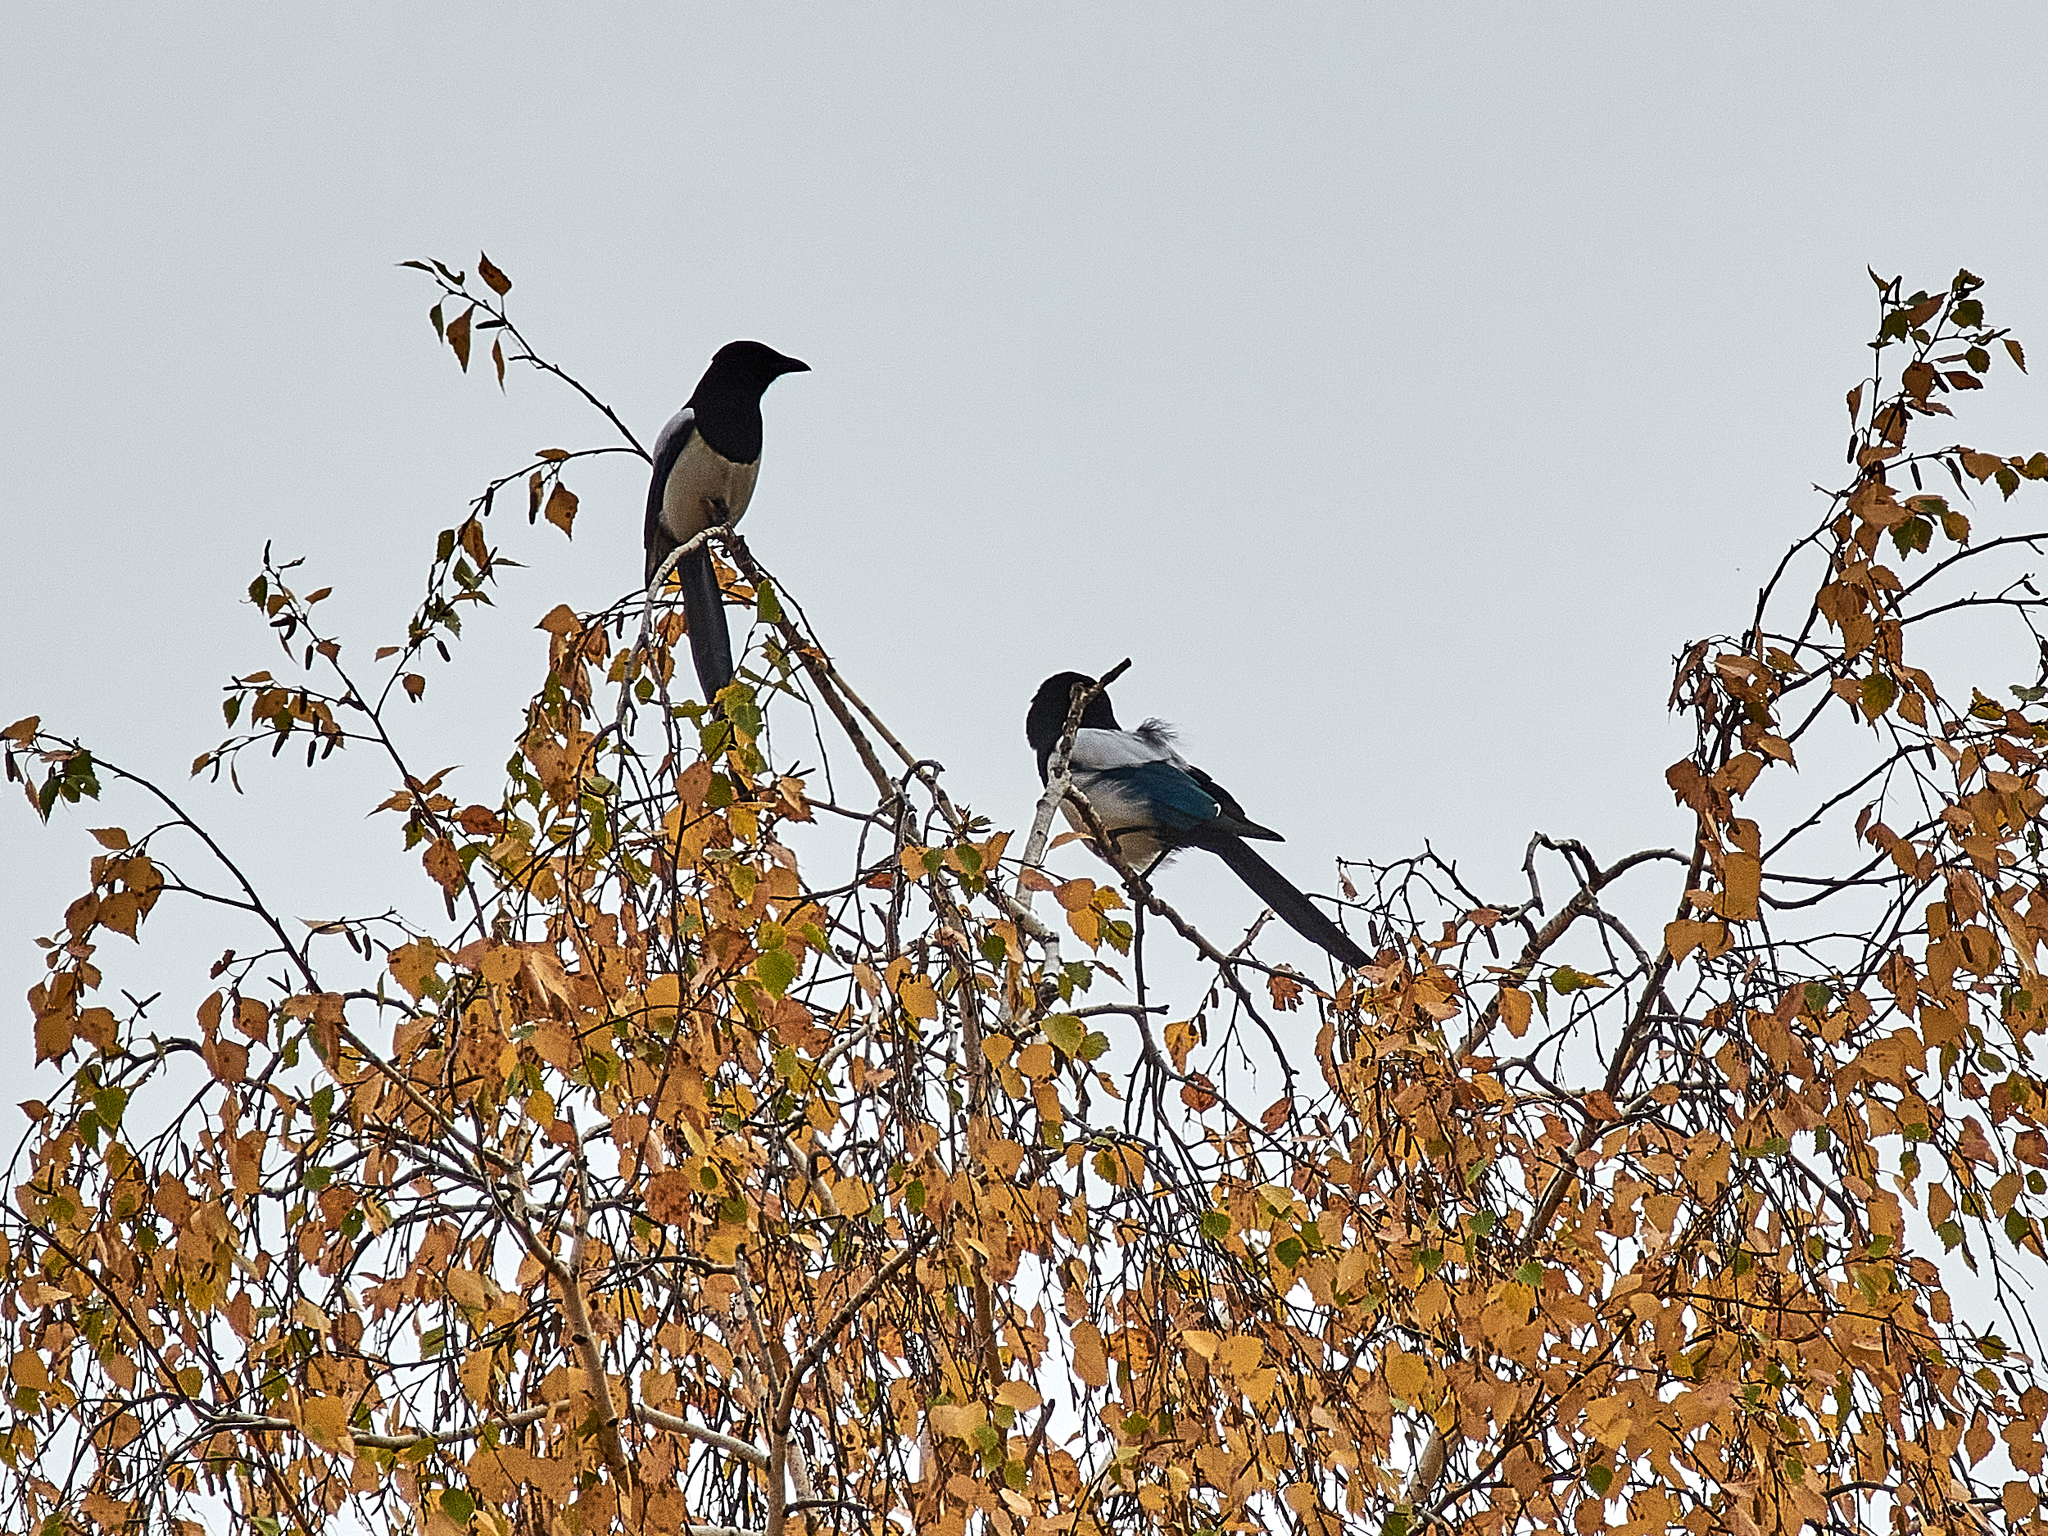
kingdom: Animalia
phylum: Chordata
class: Aves
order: Passeriformes
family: Corvidae
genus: Pica
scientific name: Pica pica
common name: Eurasian magpie
